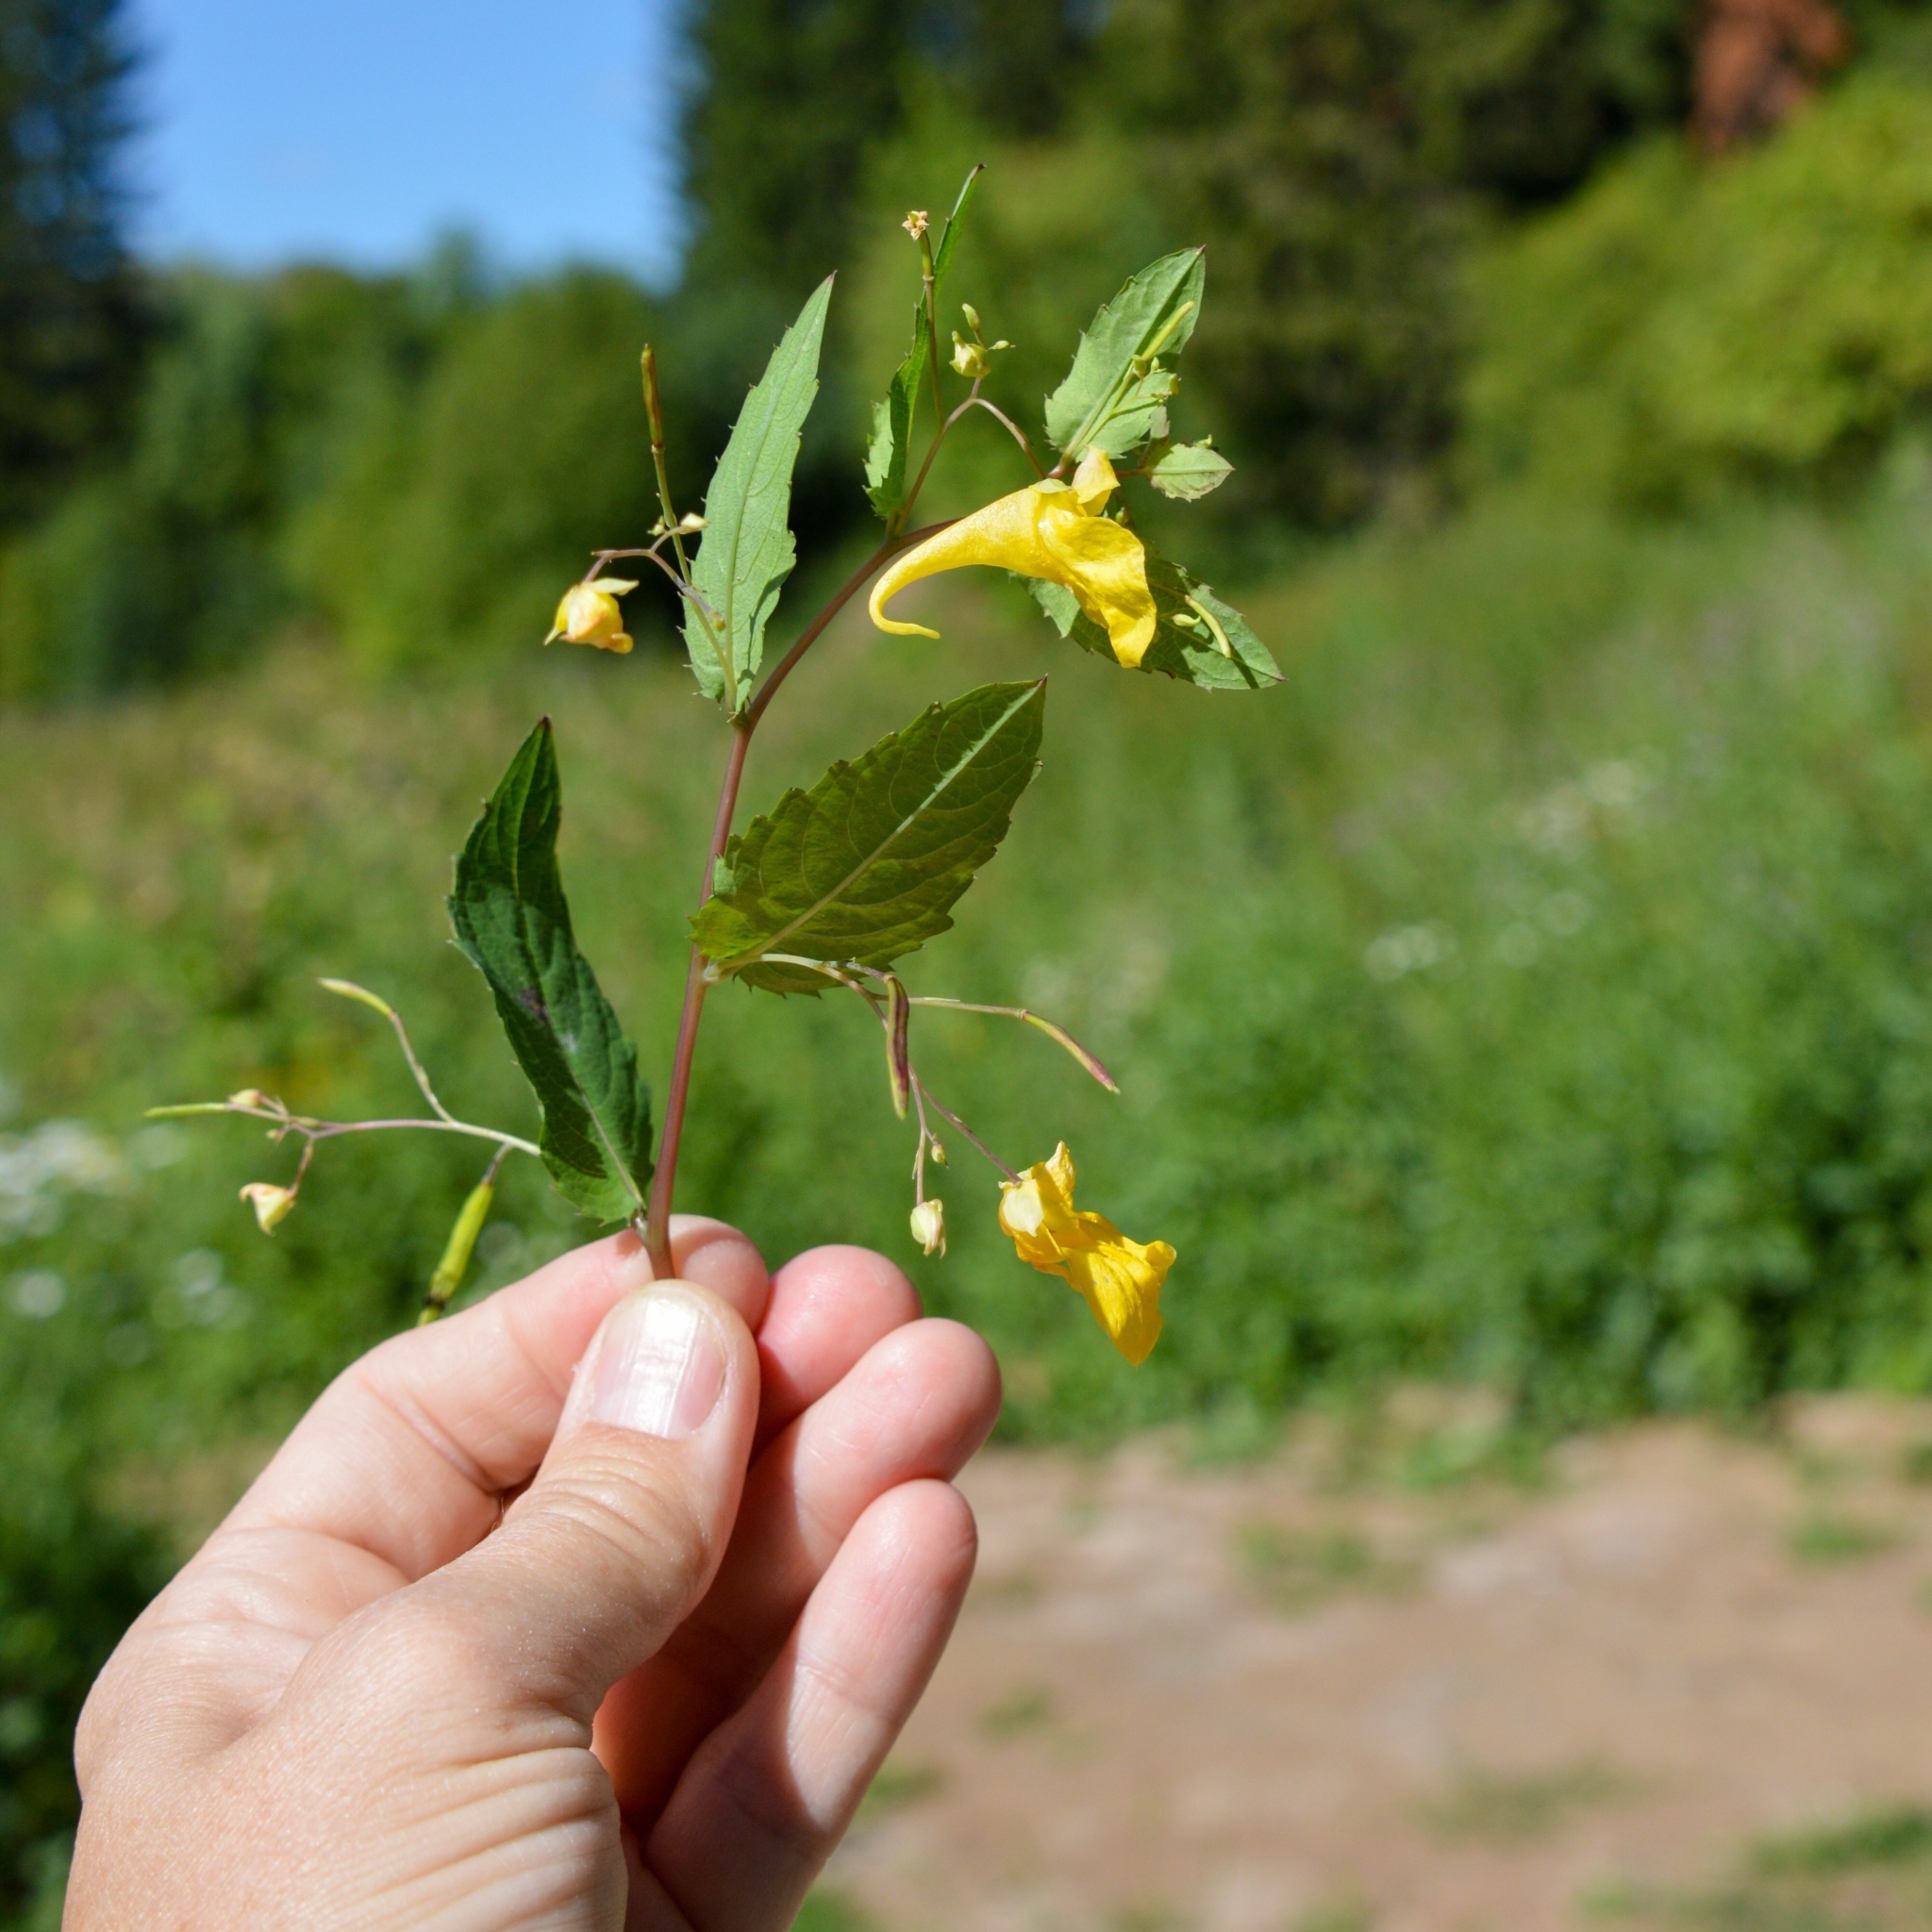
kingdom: Plantae
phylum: Tracheophyta
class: Magnoliopsida
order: Ericales
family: Balsaminaceae
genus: Impatiens
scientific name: Impatiens noli-tangere
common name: Touch-me-not balsam
